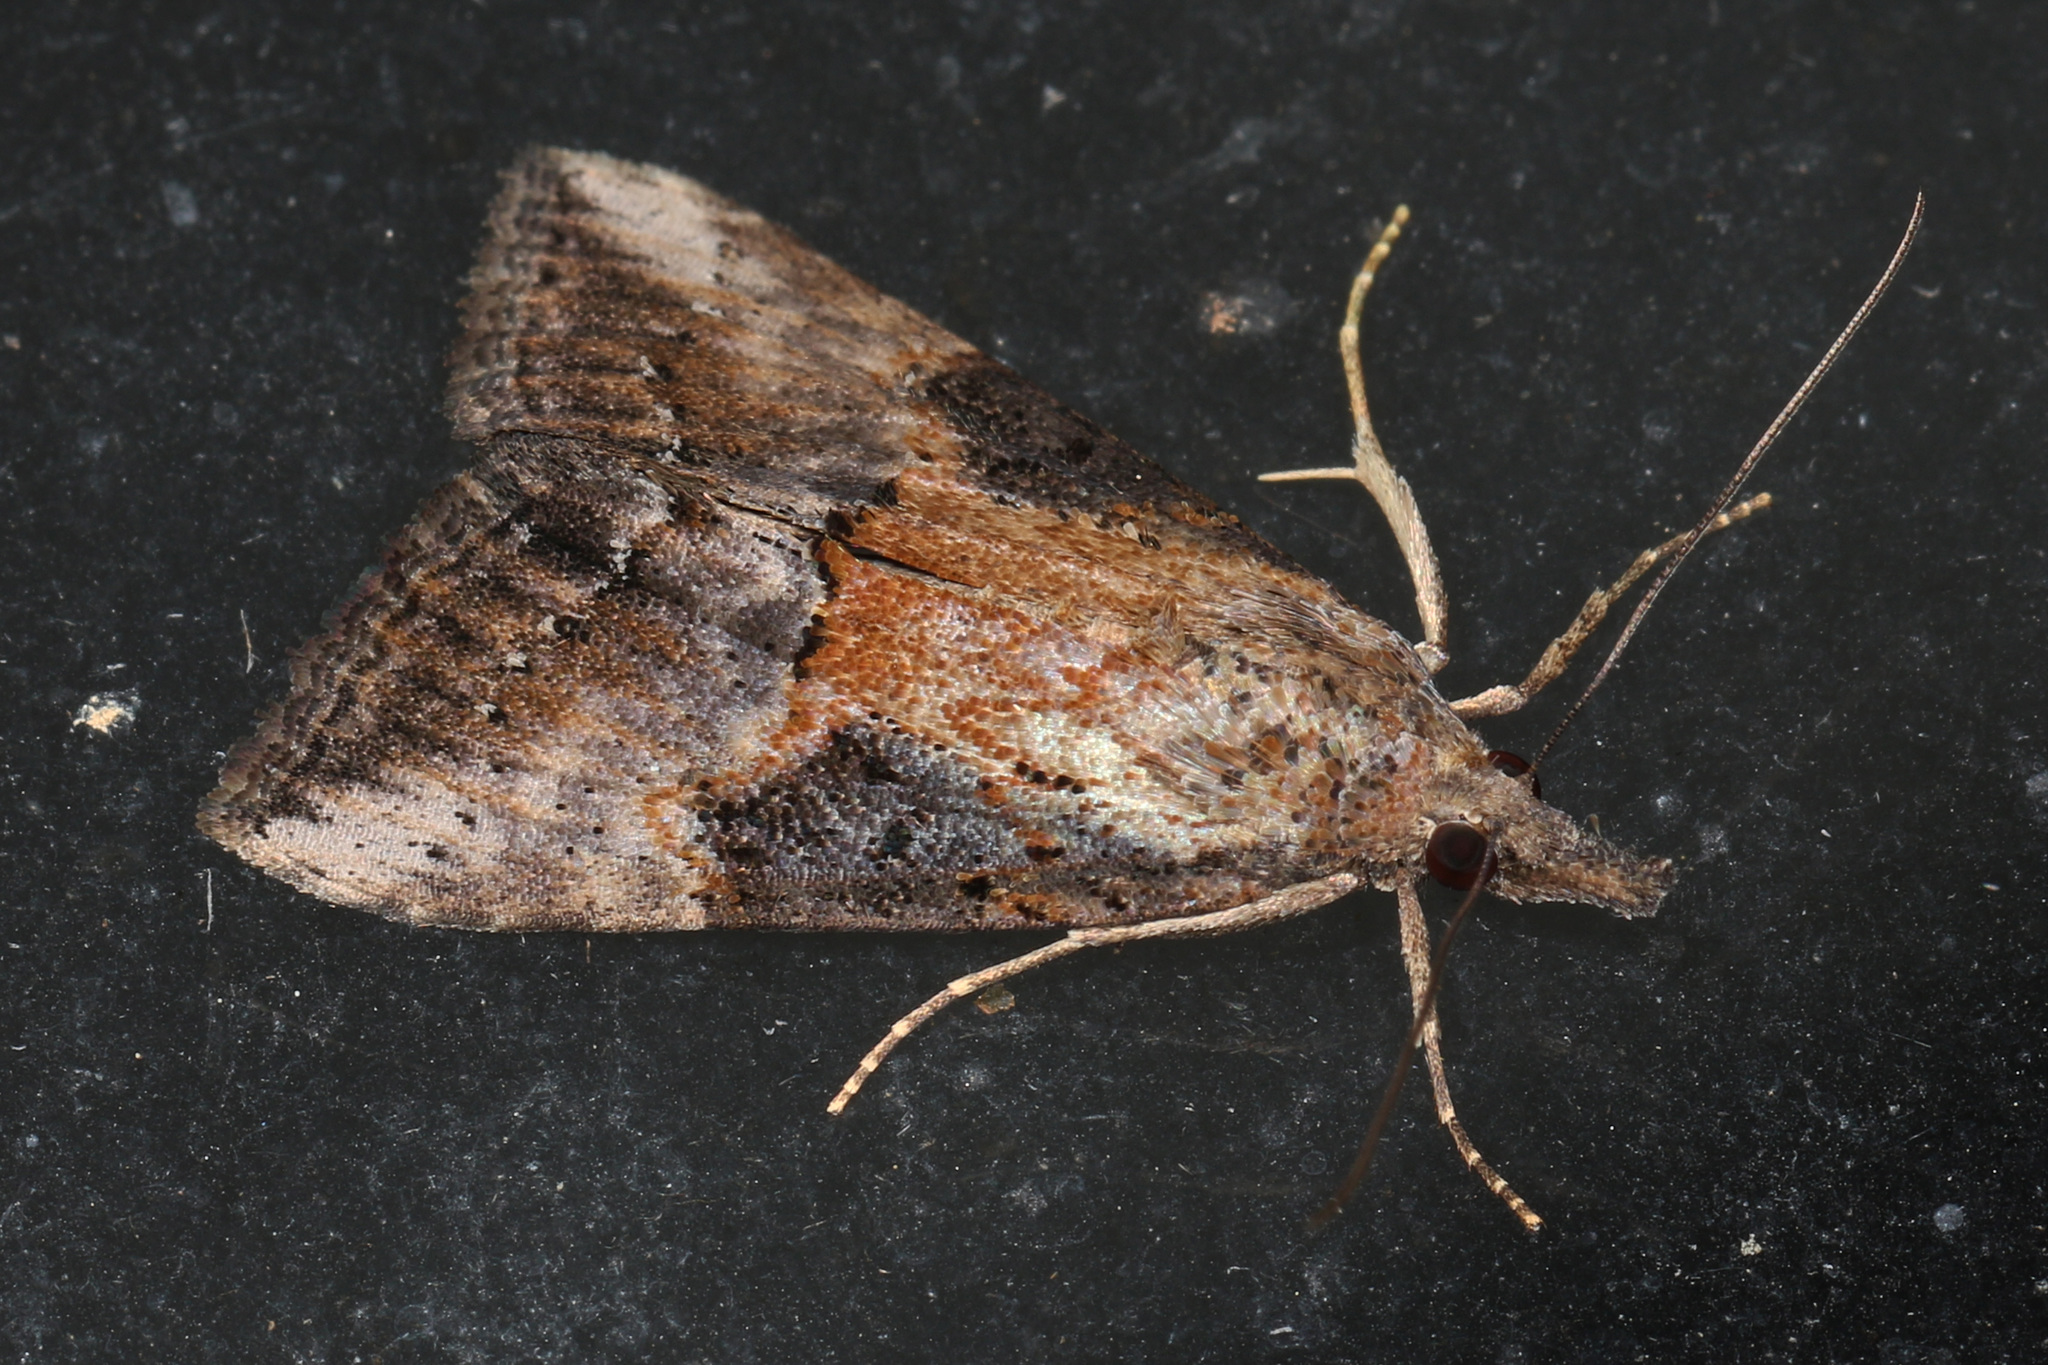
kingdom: Animalia
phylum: Arthropoda
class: Insecta
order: Lepidoptera
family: Erebidae
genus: Hypena
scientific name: Hypena scabra
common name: Green cloverworm
